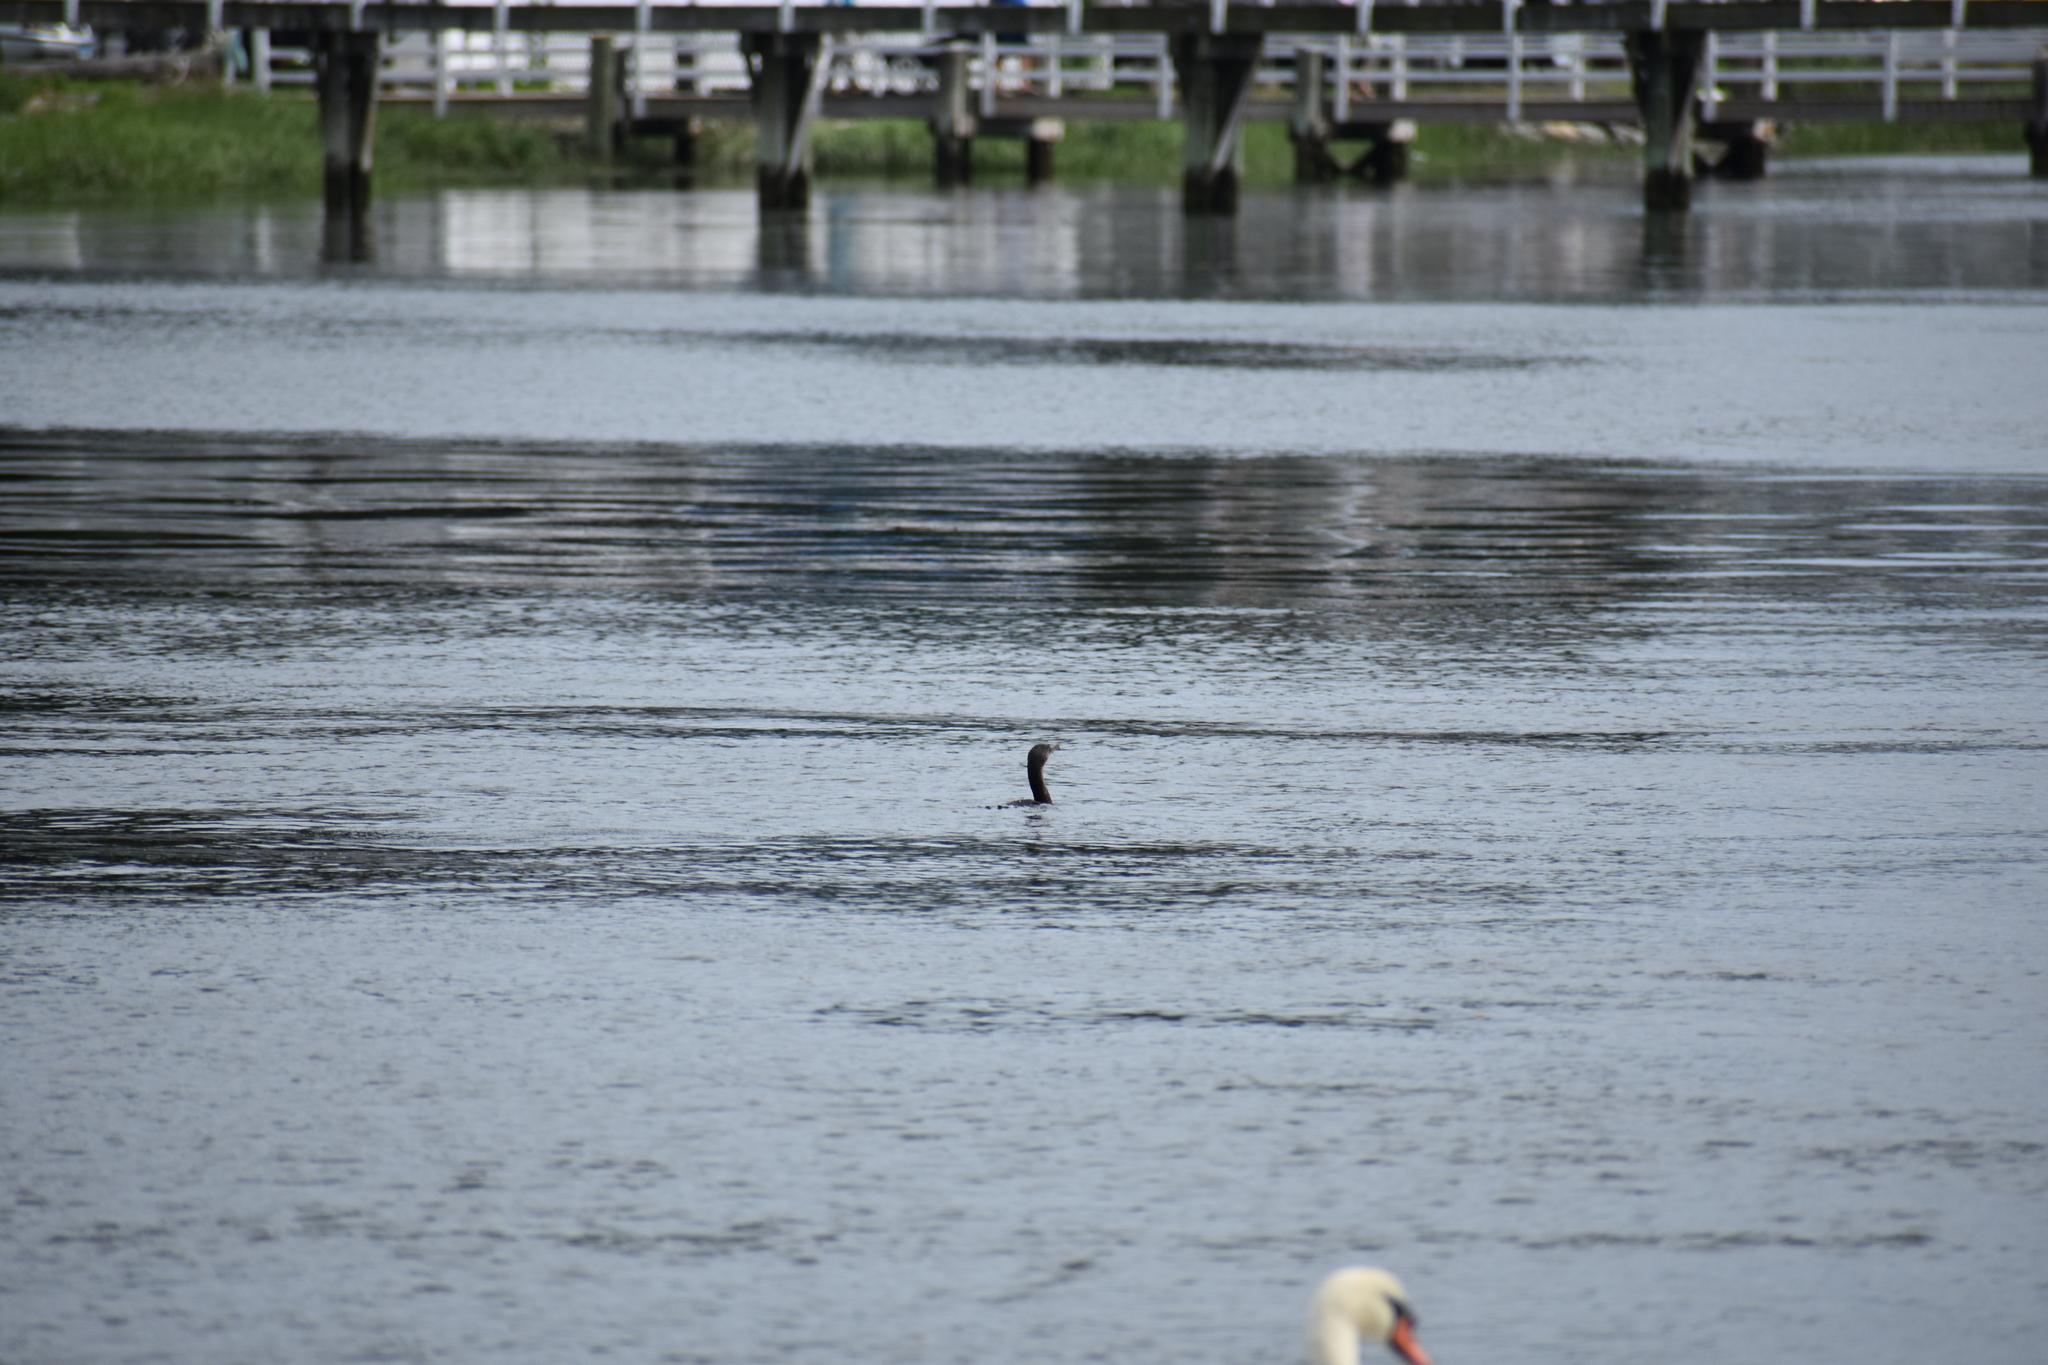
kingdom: Animalia
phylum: Chordata
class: Aves
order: Suliformes
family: Phalacrocoracidae
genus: Phalacrocorax
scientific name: Phalacrocorax auritus
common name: Double-crested cormorant
